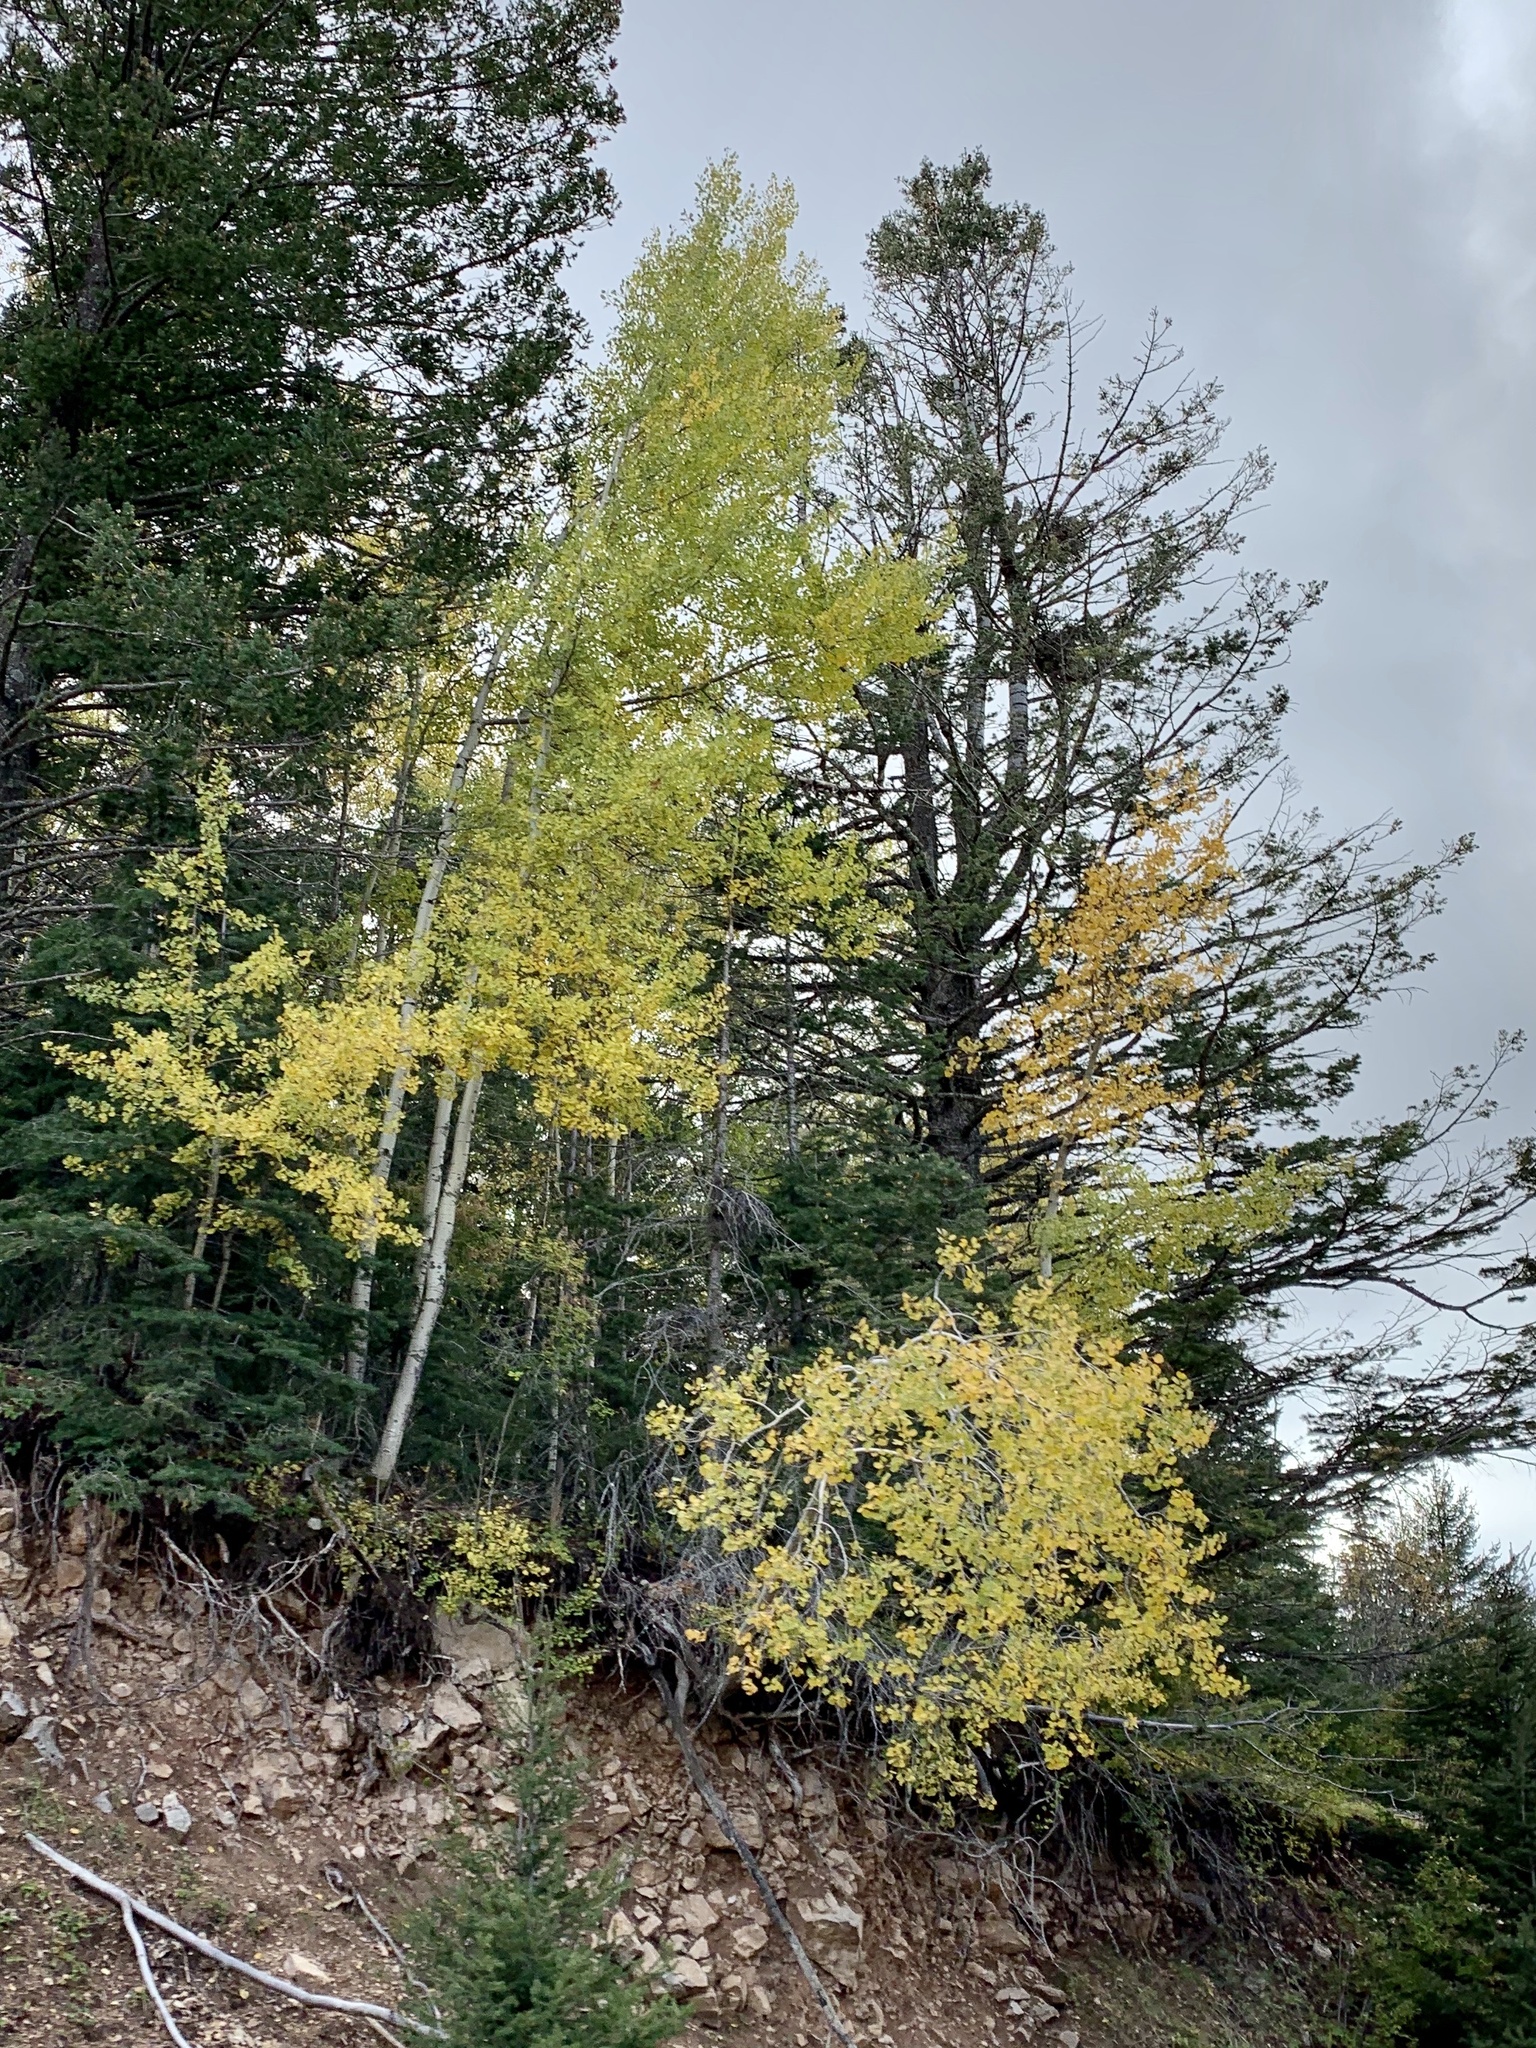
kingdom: Plantae
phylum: Tracheophyta
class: Magnoliopsida
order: Malpighiales
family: Salicaceae
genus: Populus
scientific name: Populus tremuloides
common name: Quaking aspen
